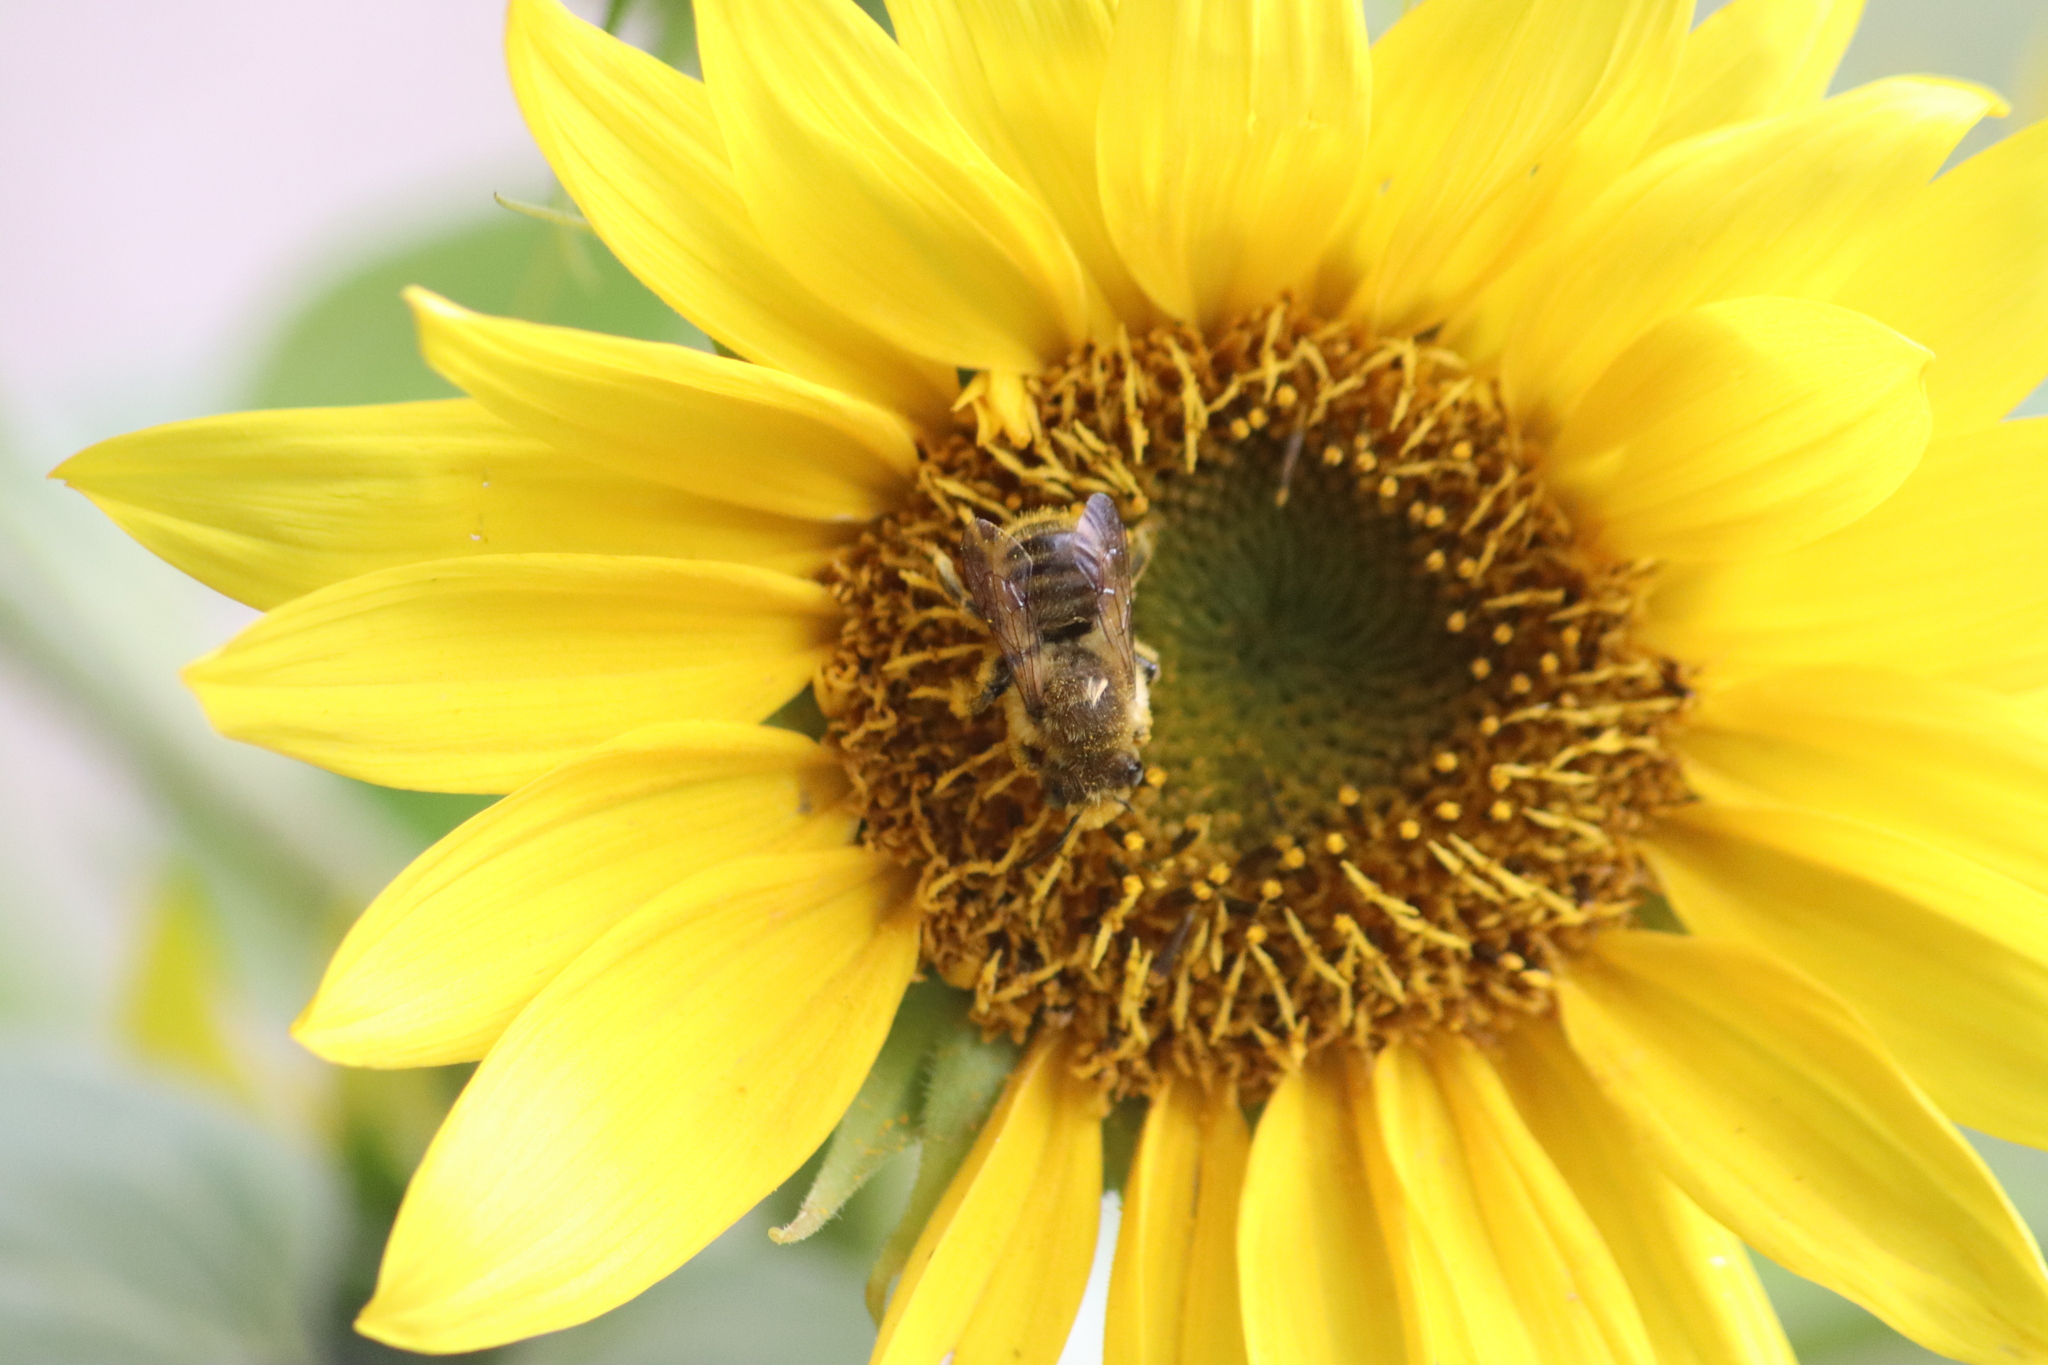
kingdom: Animalia
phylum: Arthropoda
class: Insecta
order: Hymenoptera
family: Megachilidae
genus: Megachile
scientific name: Megachile latimanus
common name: Leafcutting bee
